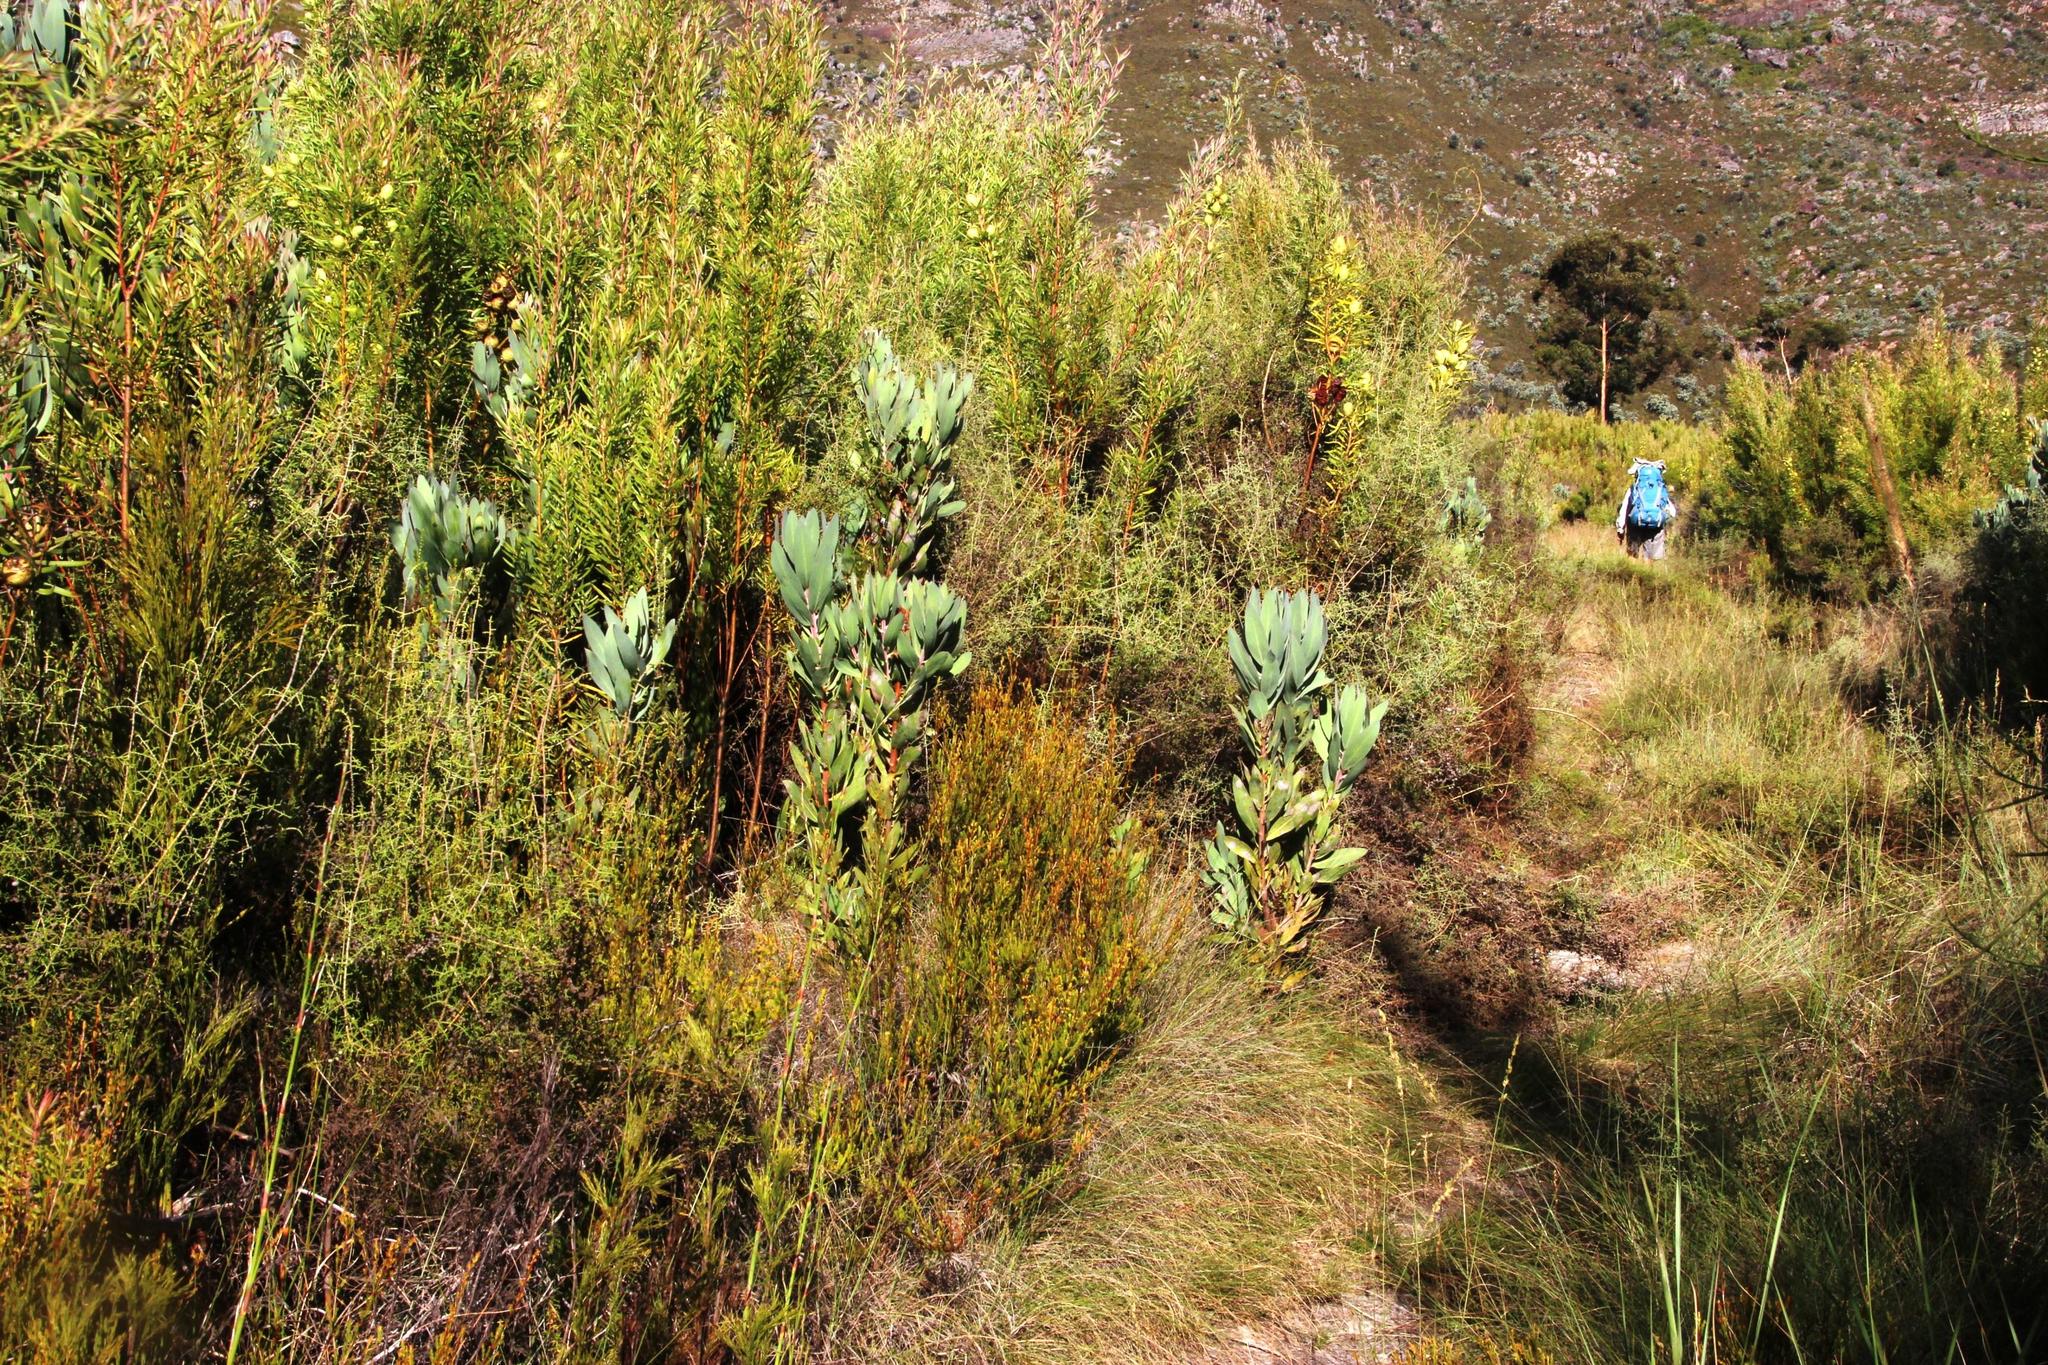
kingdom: Plantae
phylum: Tracheophyta
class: Magnoliopsida
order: Proteales
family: Proteaceae
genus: Leucadendron
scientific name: Leucadendron salicifolium
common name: Common stream conebush
